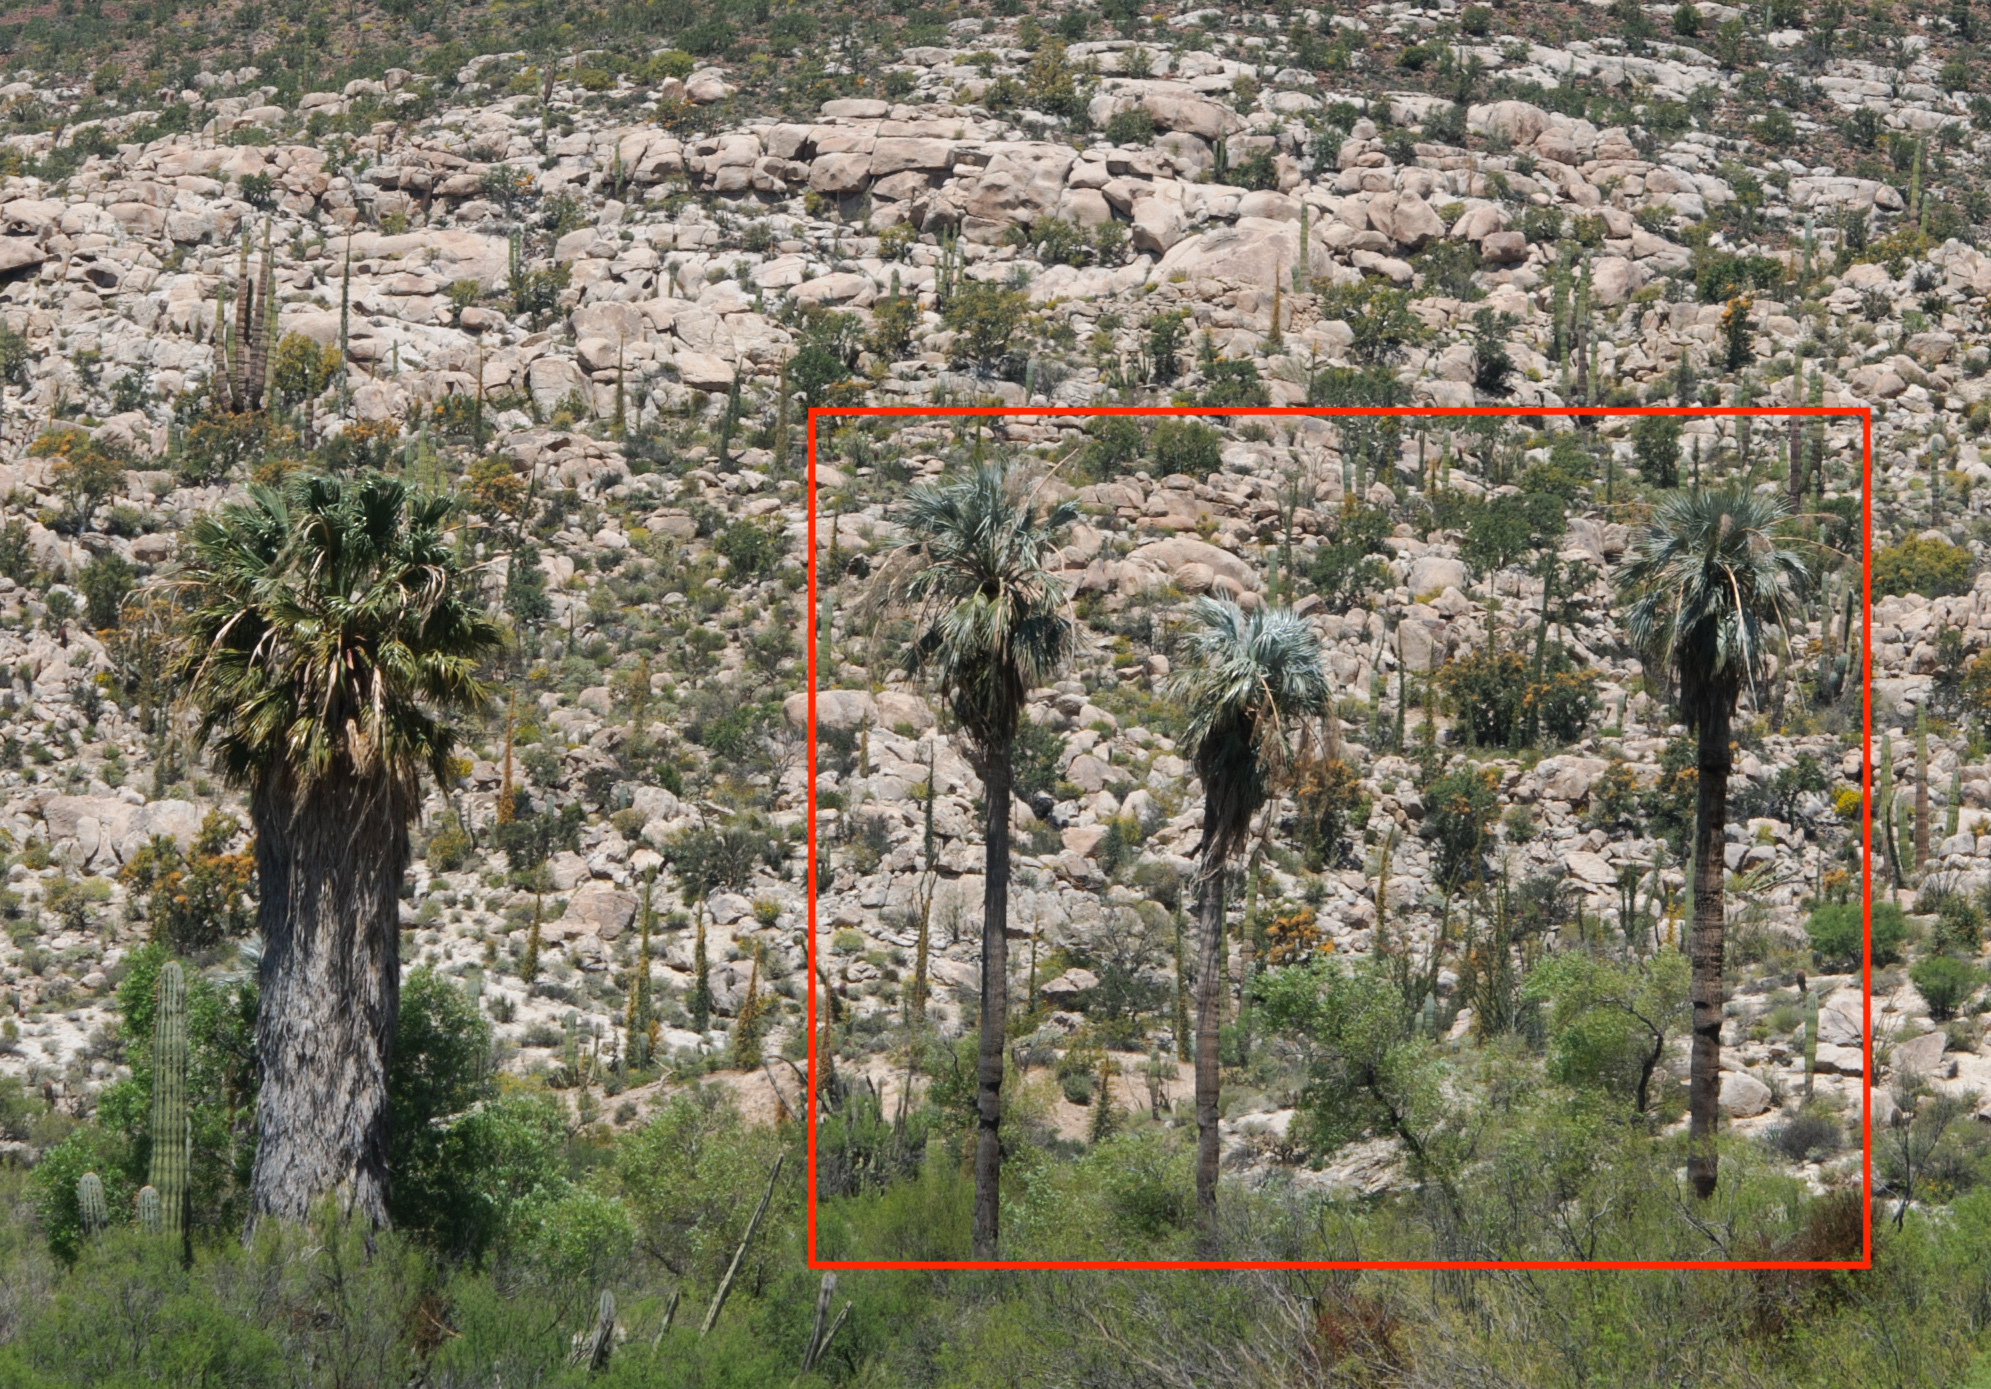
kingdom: Plantae
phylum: Tracheophyta
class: Liliopsida
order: Arecales
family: Arecaceae
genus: Brahea
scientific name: Brahea armata
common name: Mexican blue palm
